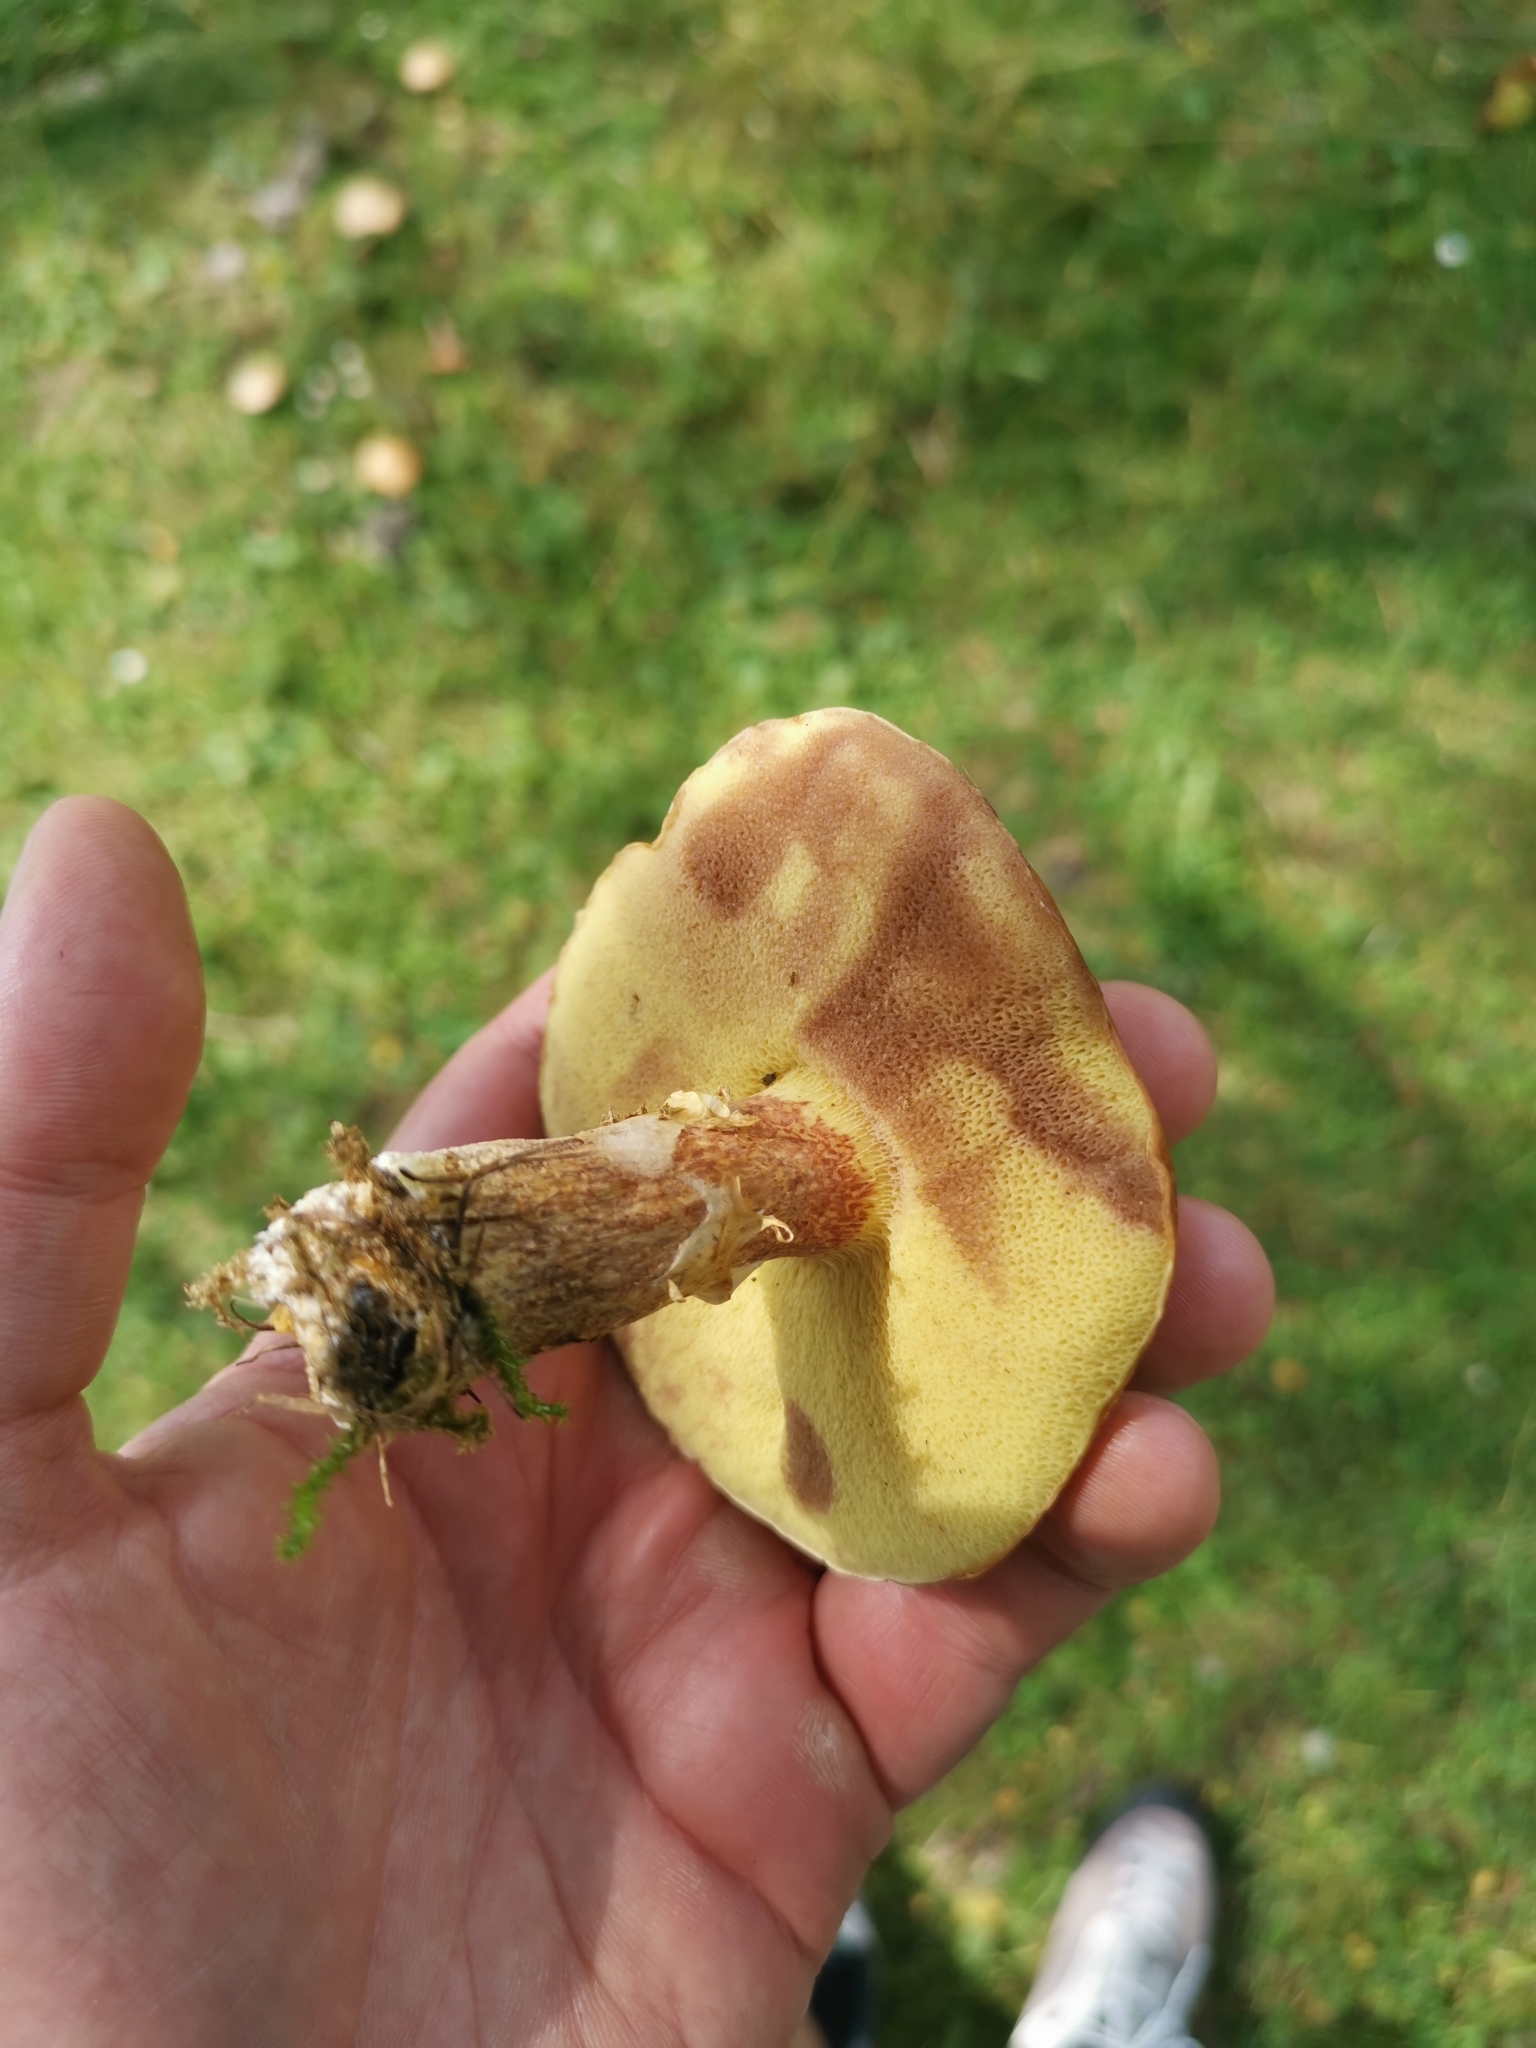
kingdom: Fungi
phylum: Basidiomycota
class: Agaricomycetes
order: Boletales
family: Suillaceae
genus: Suillus
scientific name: Suillus grevillei
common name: Larch bolete
